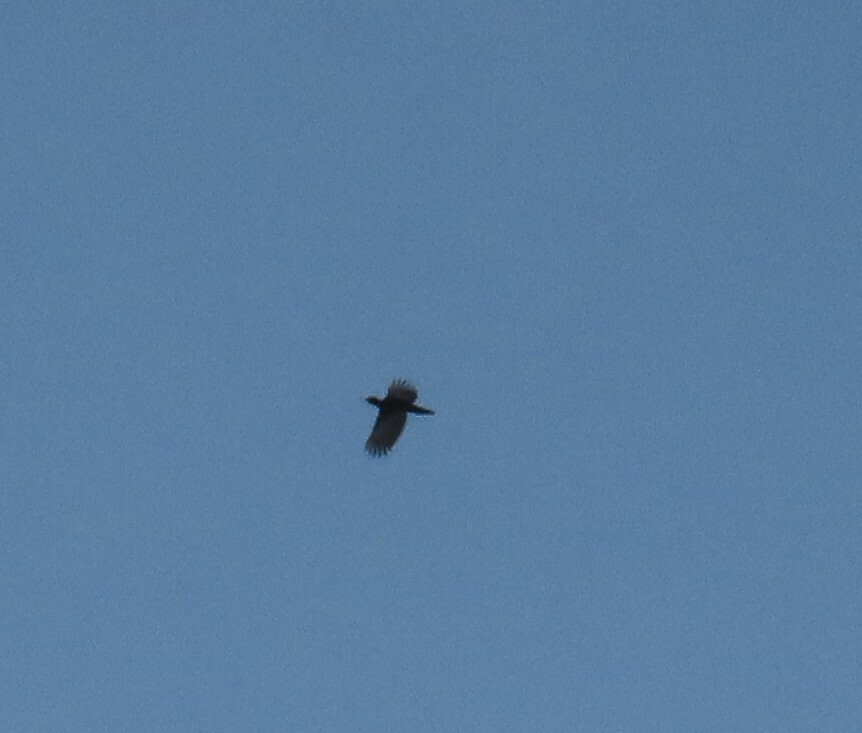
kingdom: Animalia
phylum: Chordata
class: Aves
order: Piciformes
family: Picidae
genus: Dryocopus
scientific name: Dryocopus martius
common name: Black woodpecker
